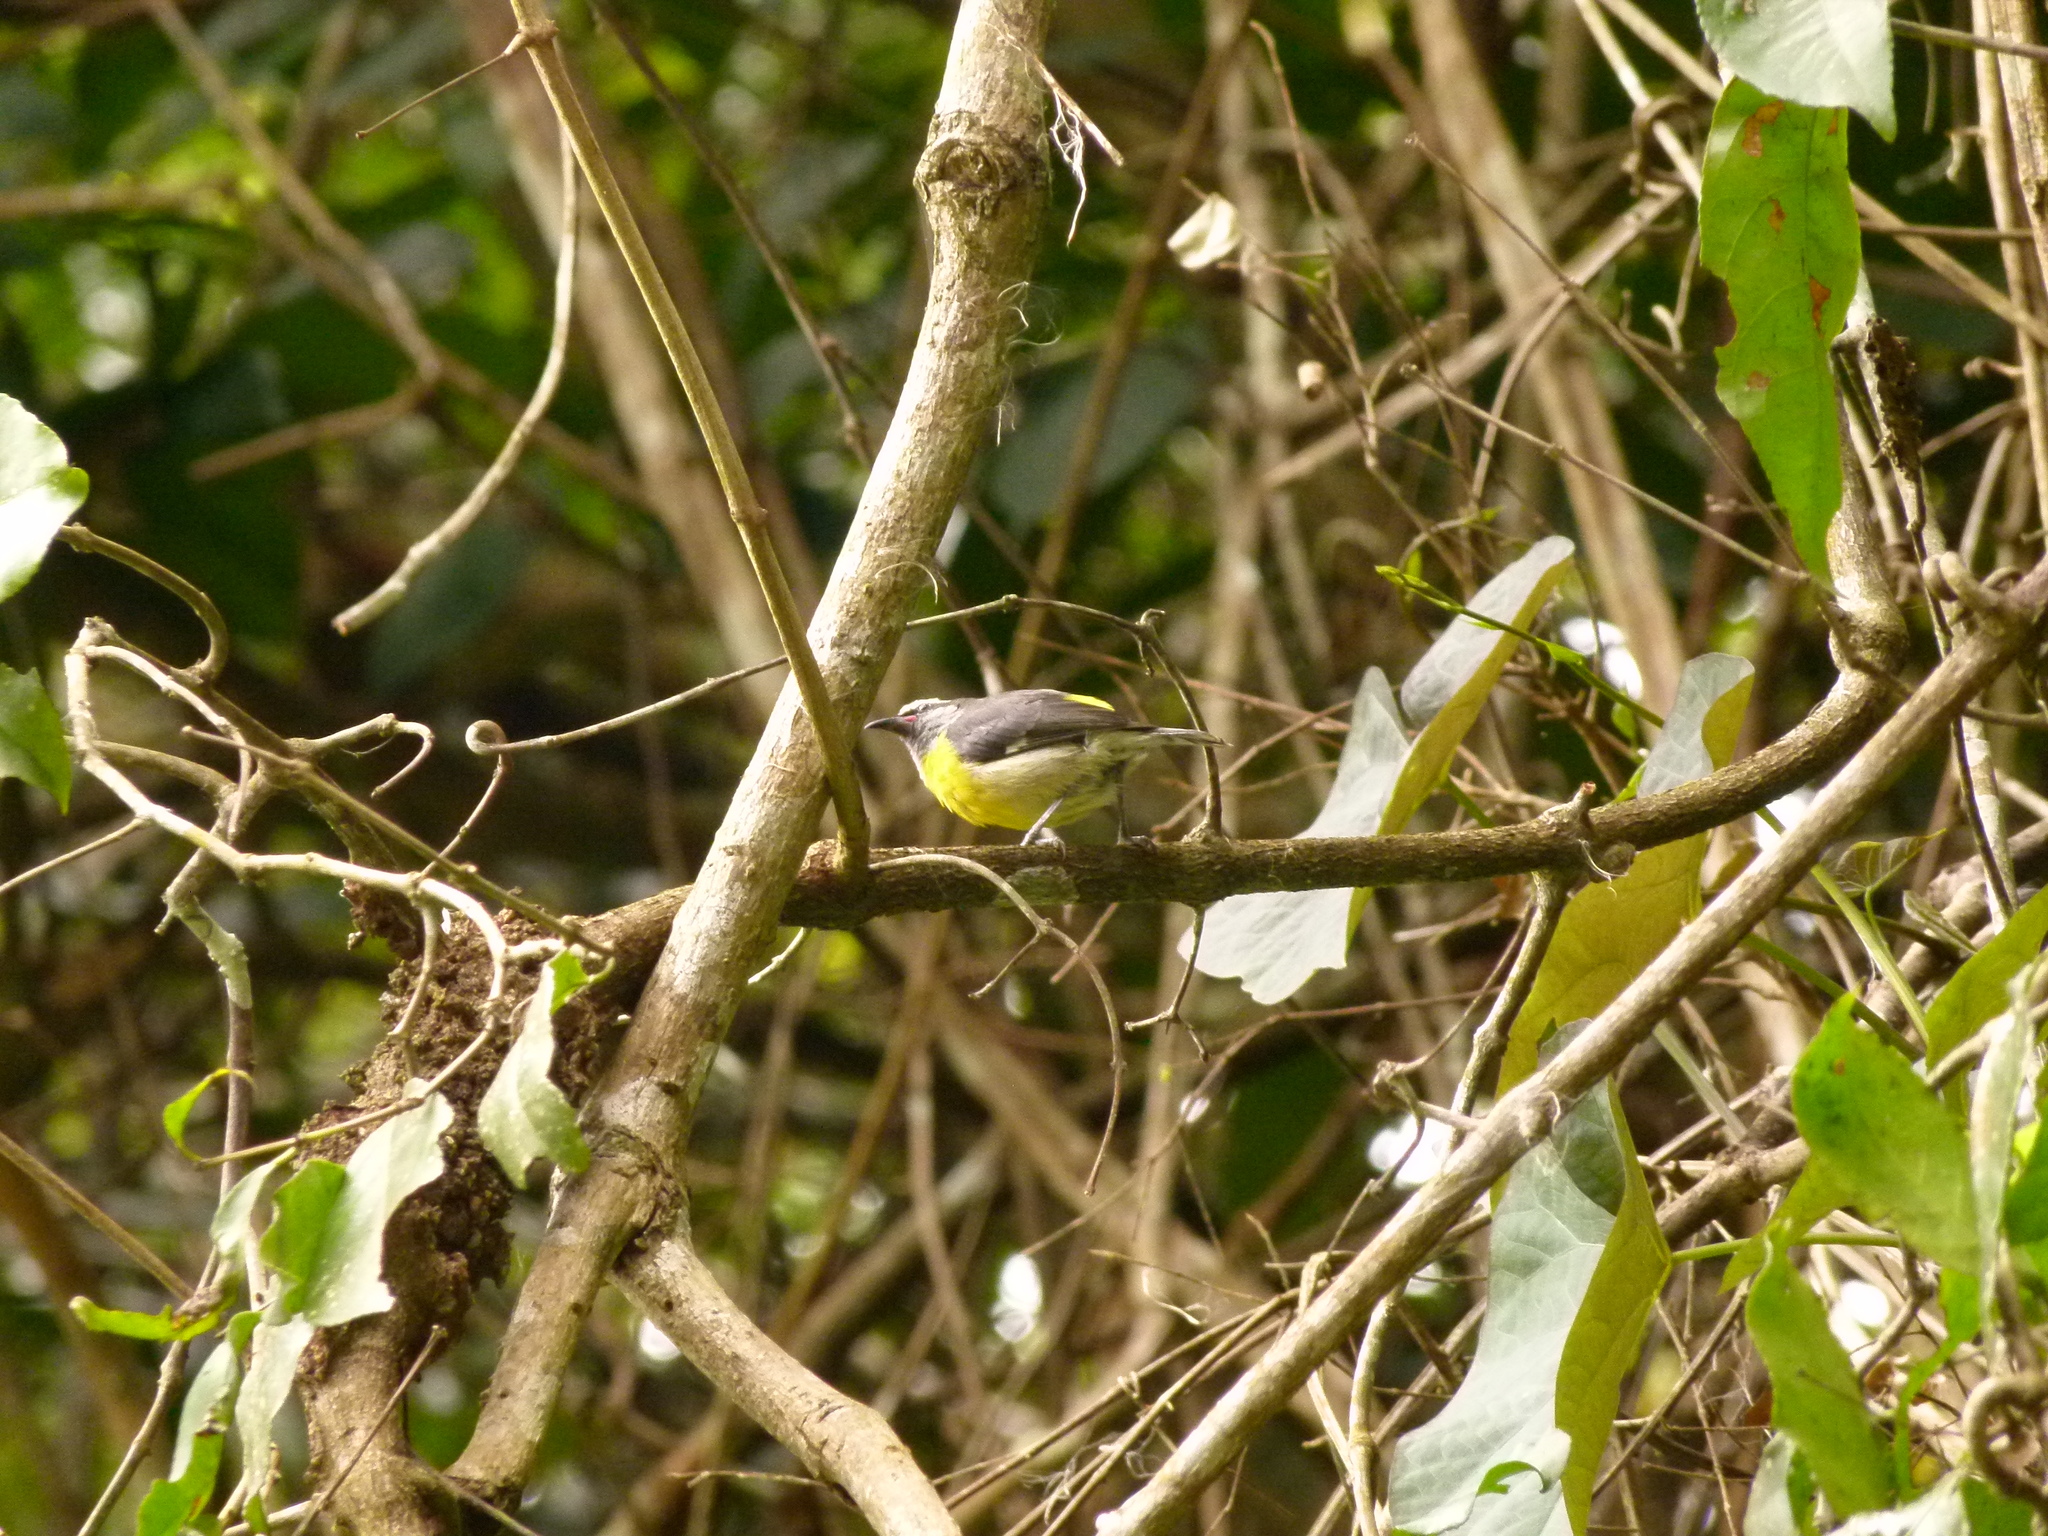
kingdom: Animalia
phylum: Chordata
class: Aves
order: Passeriformes
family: Thraupidae
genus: Coereba
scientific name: Coereba flaveola
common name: Bananaquit
